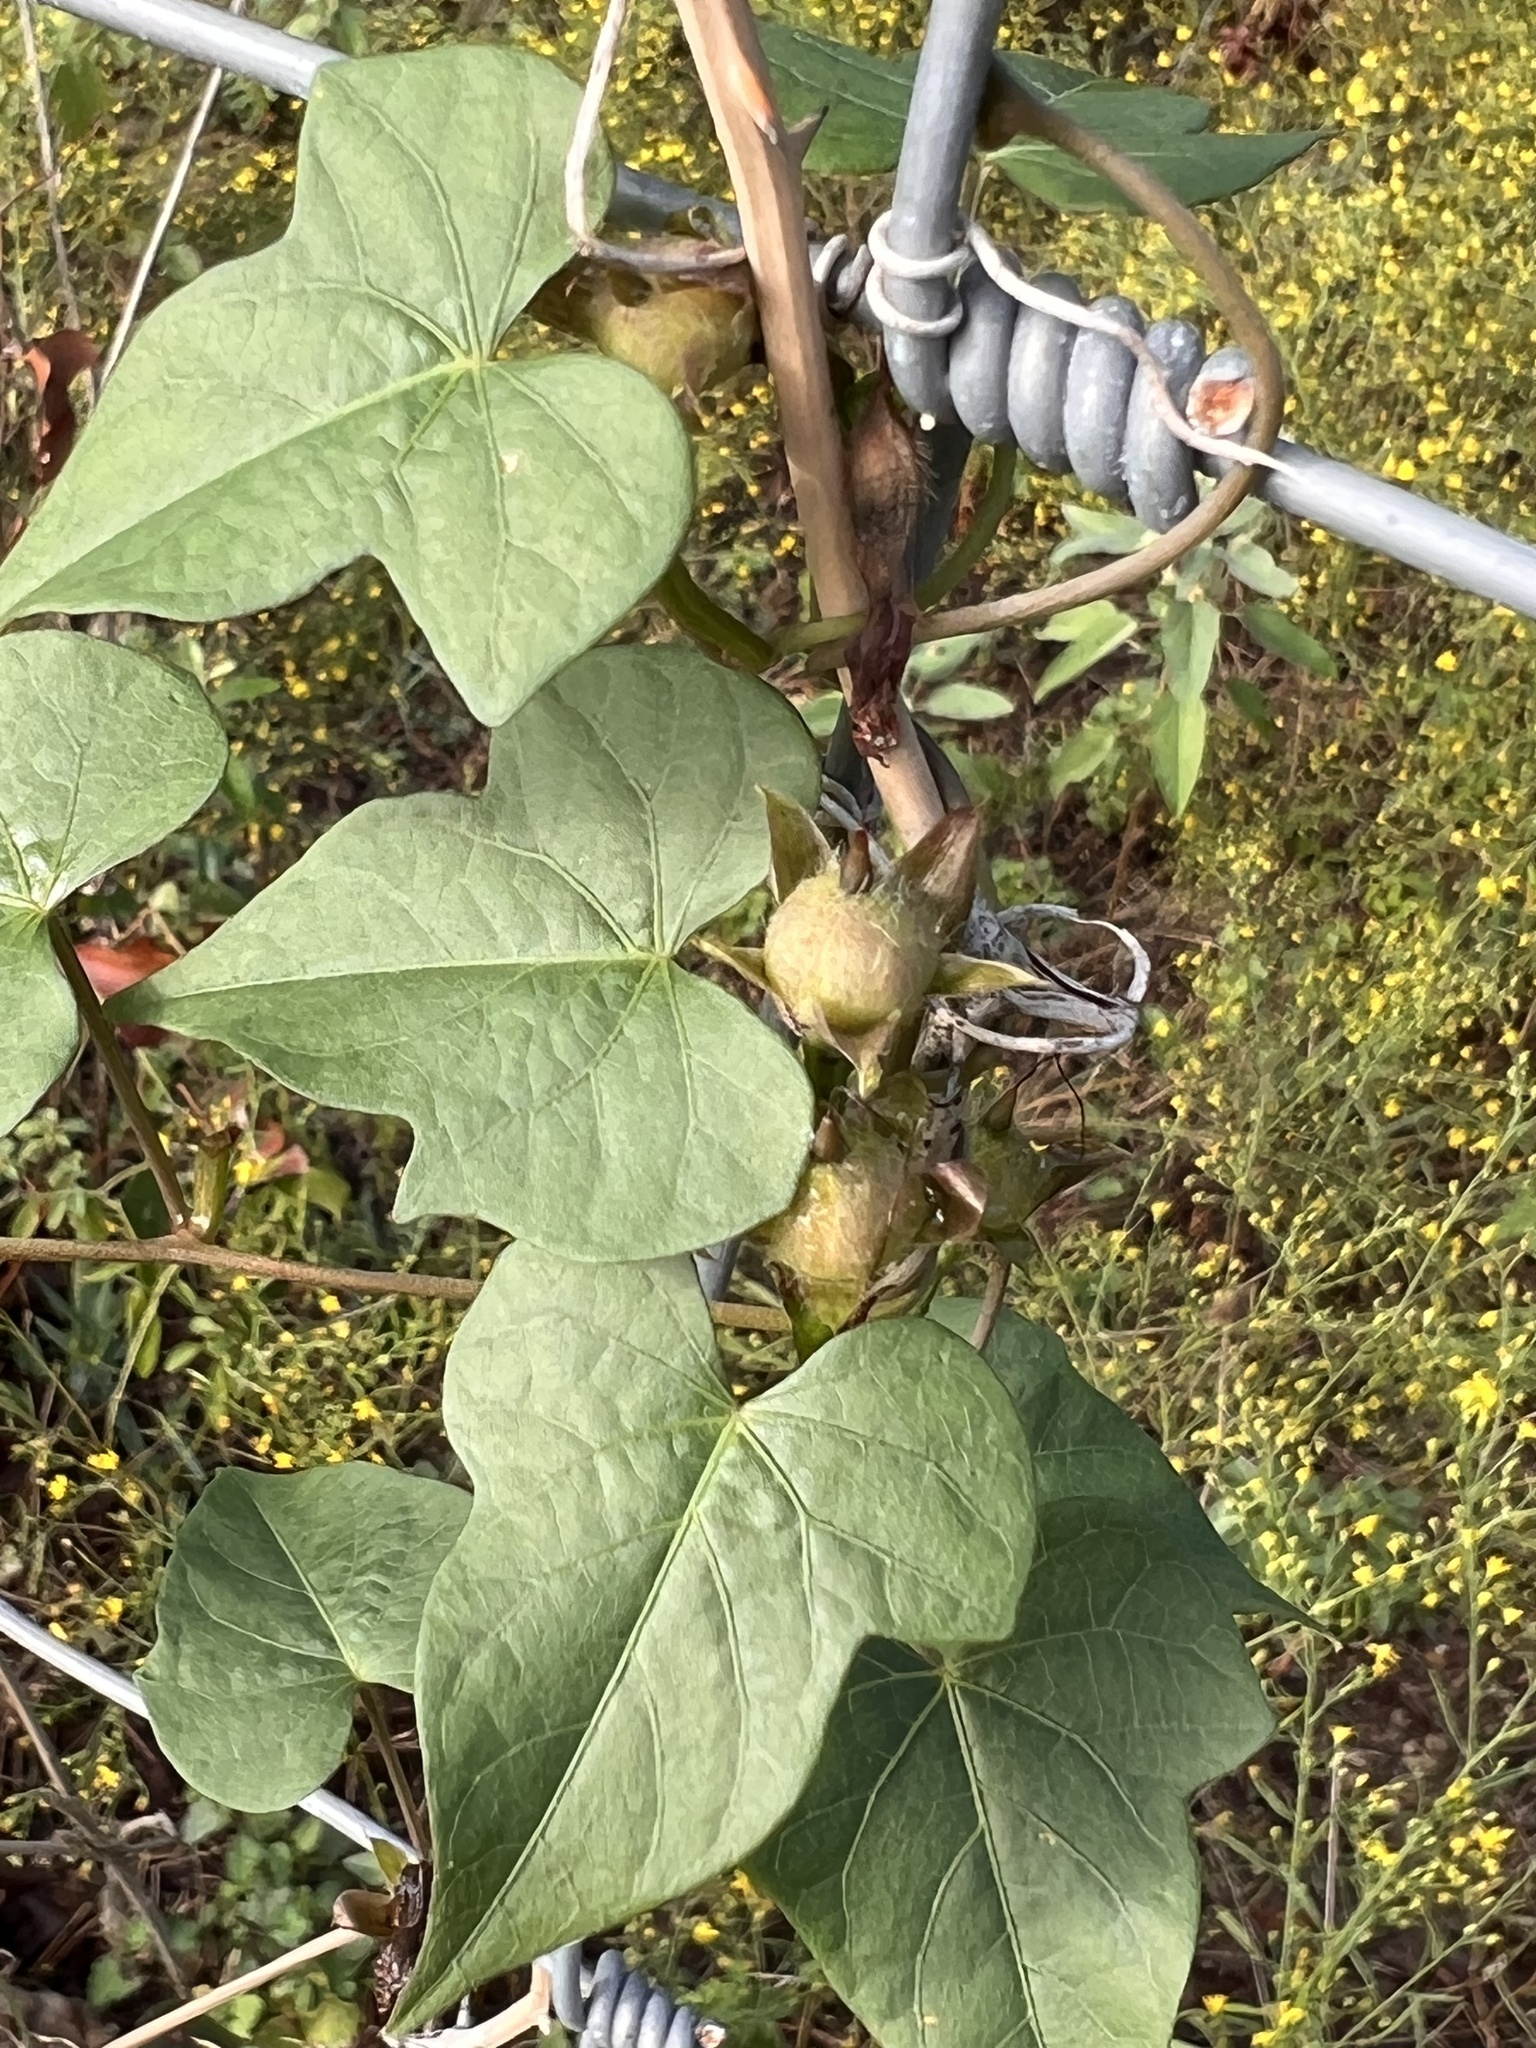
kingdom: Plantae
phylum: Tracheophyta
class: Magnoliopsida
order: Solanales
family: Convolvulaceae
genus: Ipomoea
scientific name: Ipomoea cordatotriloba
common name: Cotton morning glory
